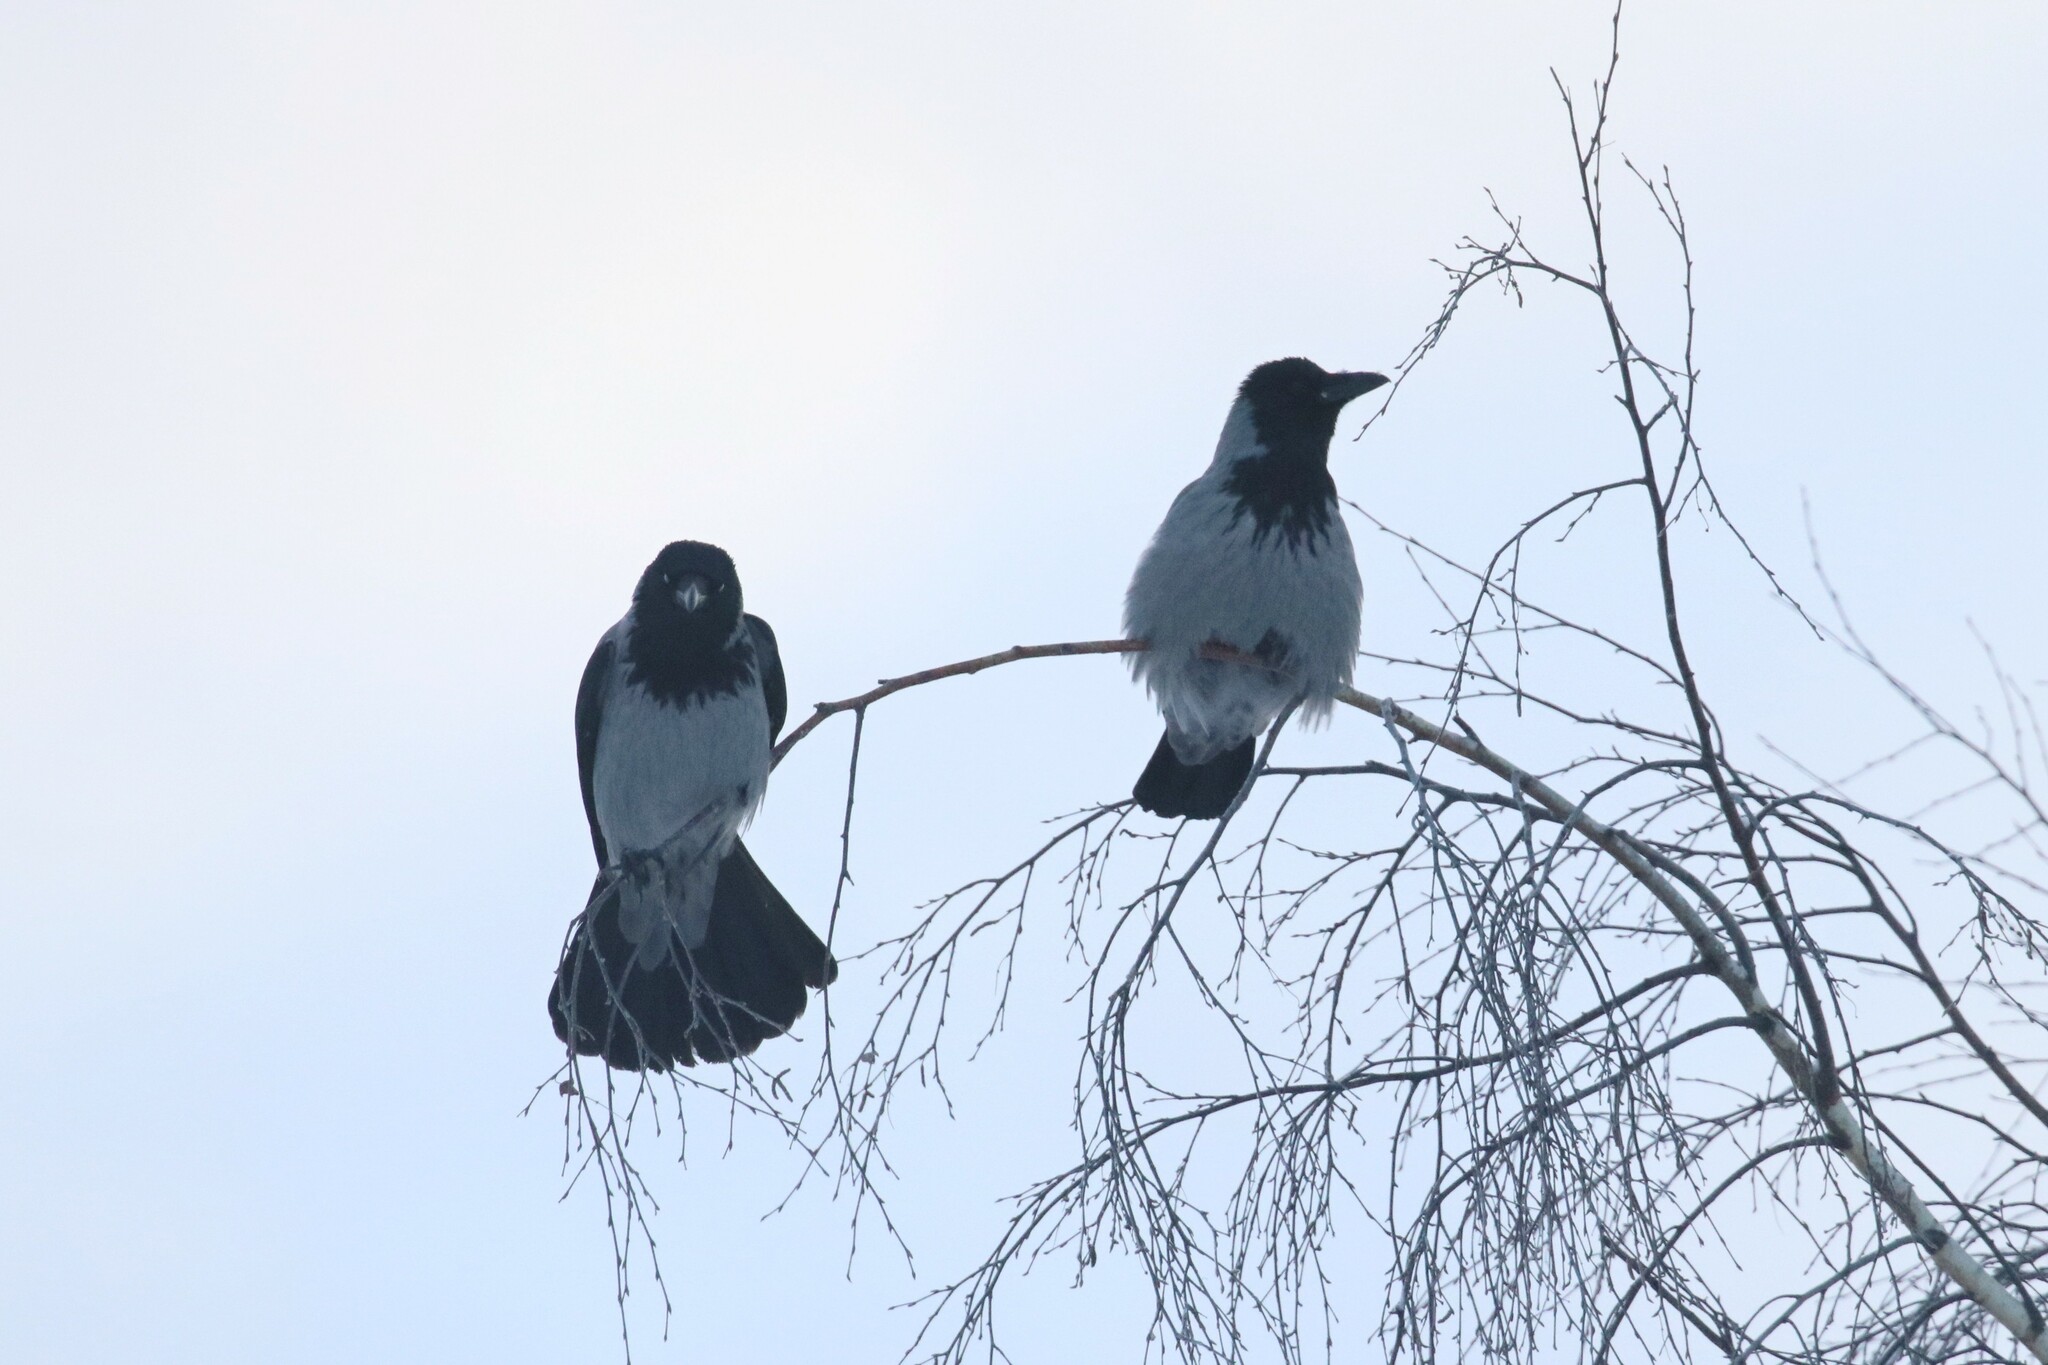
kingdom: Animalia
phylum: Chordata
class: Aves
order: Passeriformes
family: Corvidae
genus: Corvus
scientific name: Corvus cornix
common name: Hooded crow
